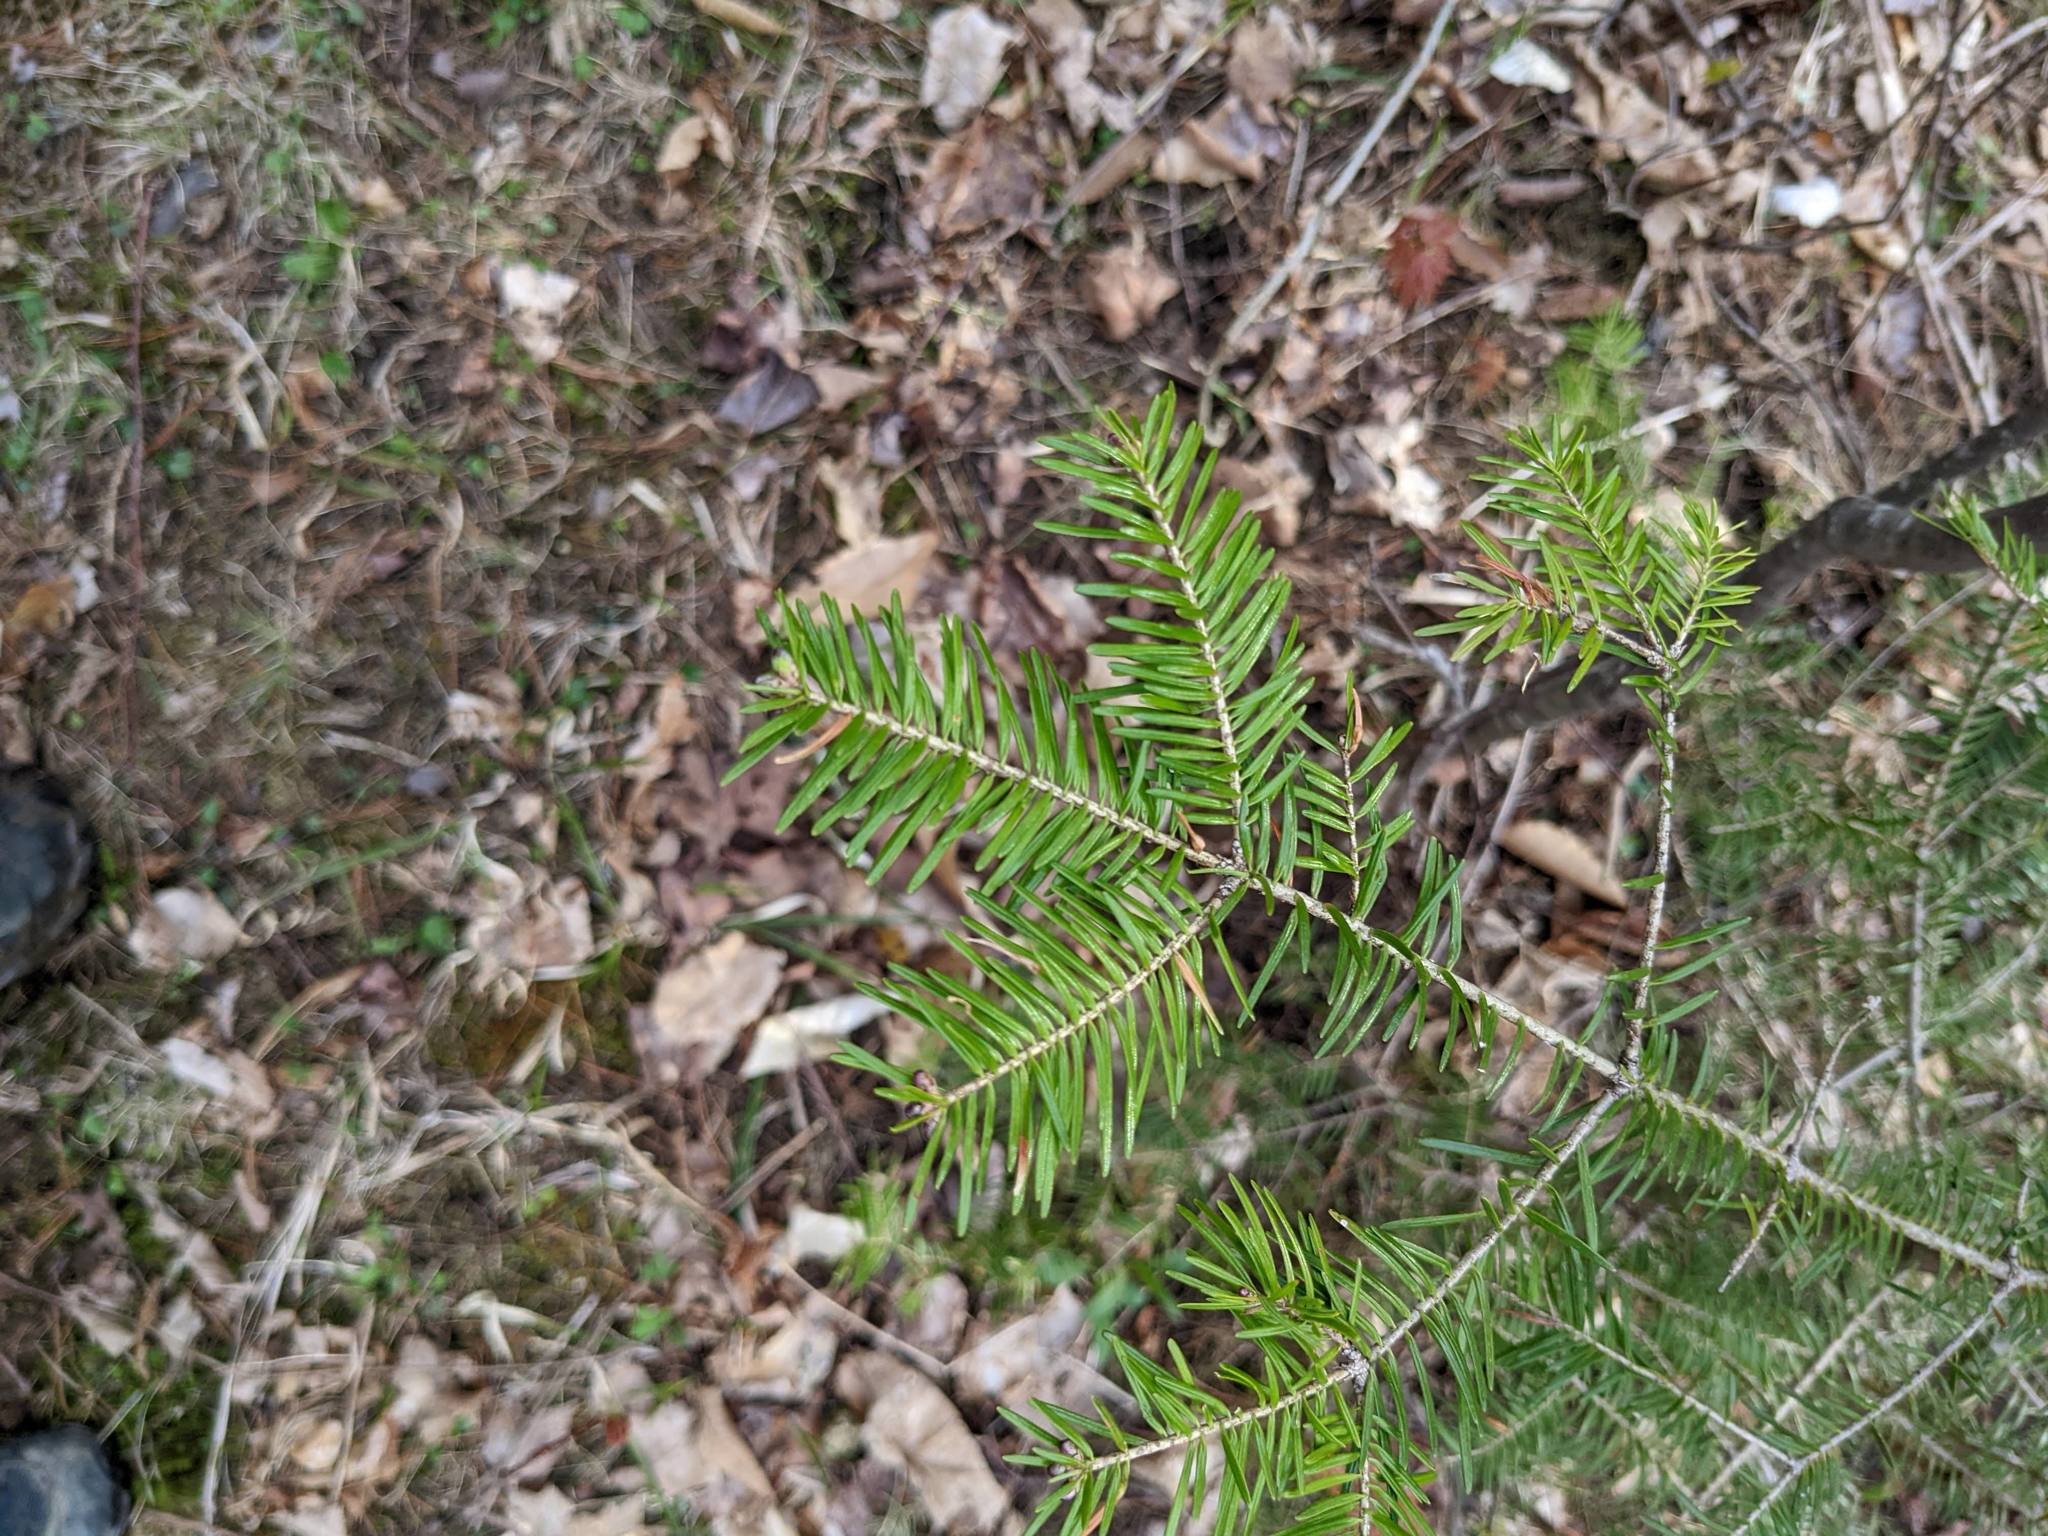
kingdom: Plantae
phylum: Tracheophyta
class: Pinopsida
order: Pinales
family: Pinaceae
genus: Abies
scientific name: Abies balsamea
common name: Balsam fir
